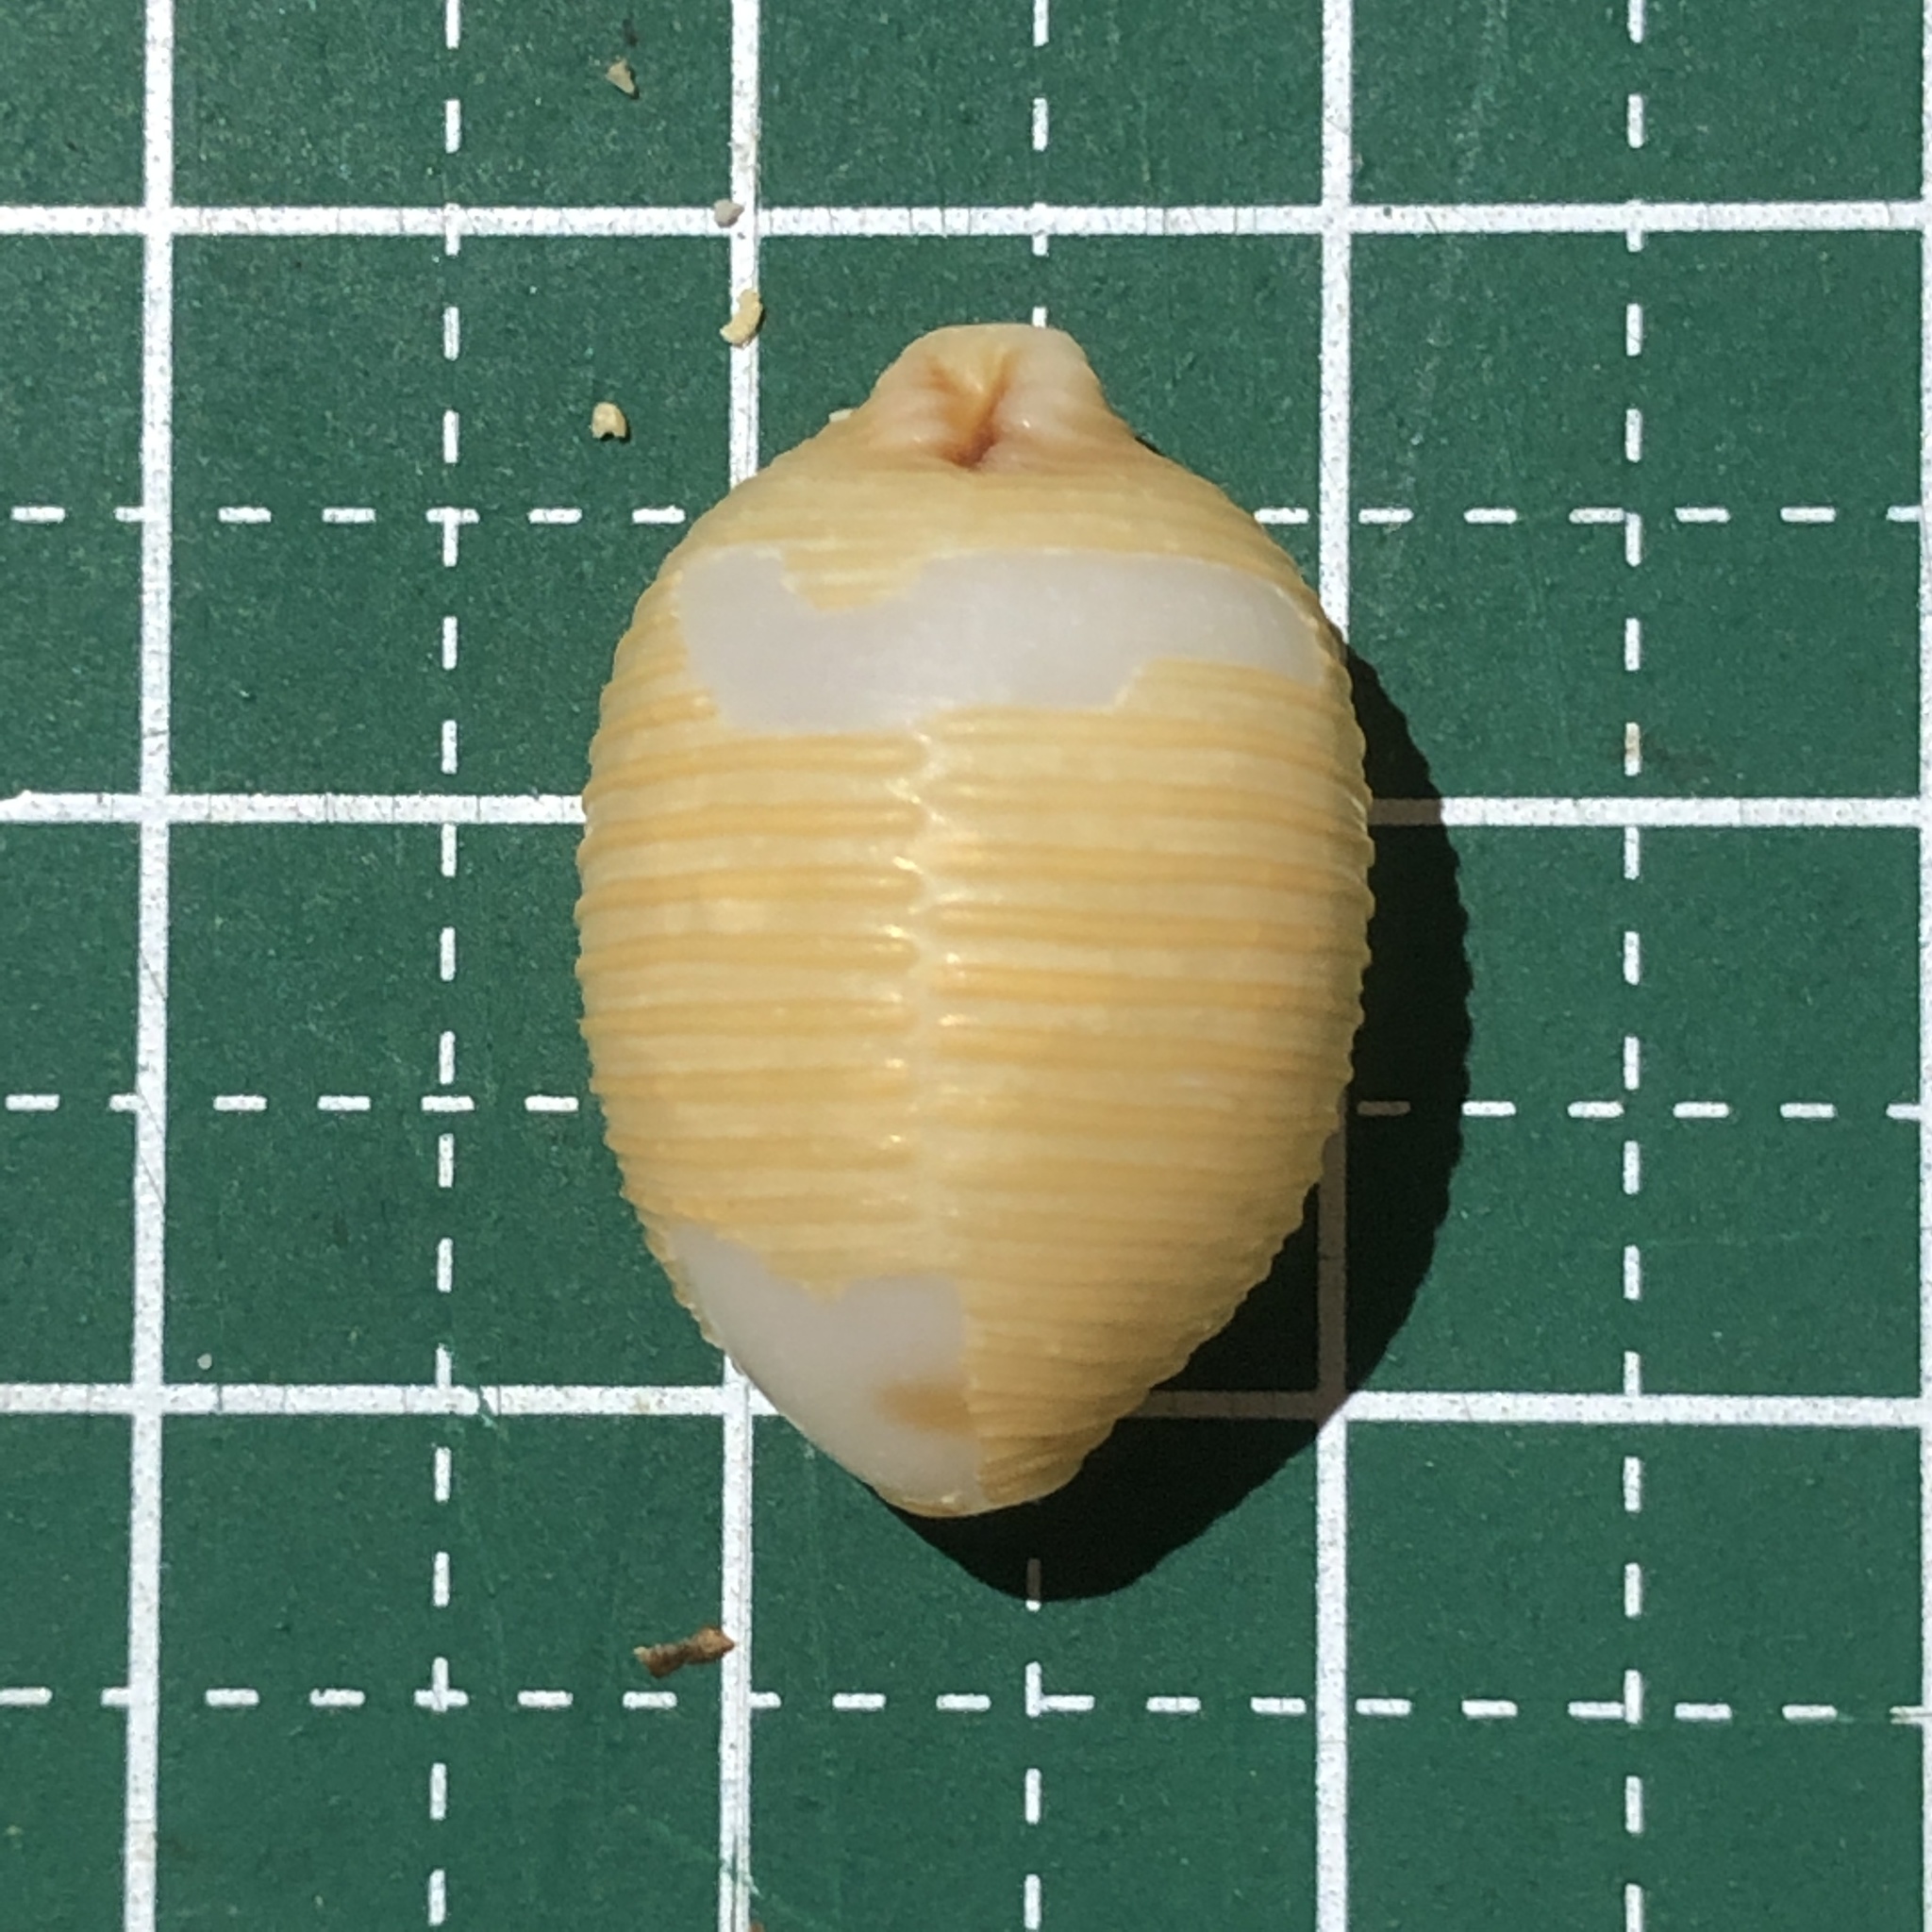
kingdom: Animalia
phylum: Mollusca
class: Gastropoda
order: Littorinimorpha
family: Cypraeidae
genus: Ipsa
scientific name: Ipsa childreni
